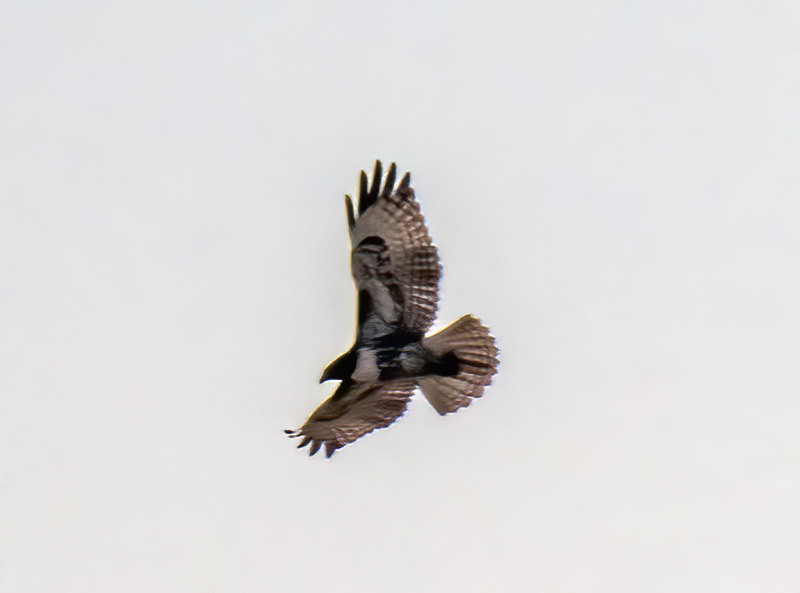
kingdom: Animalia
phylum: Chordata
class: Aves
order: Accipitriformes
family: Accipitridae
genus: Buteo
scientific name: Buteo jamaicensis
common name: Red-tailed hawk
